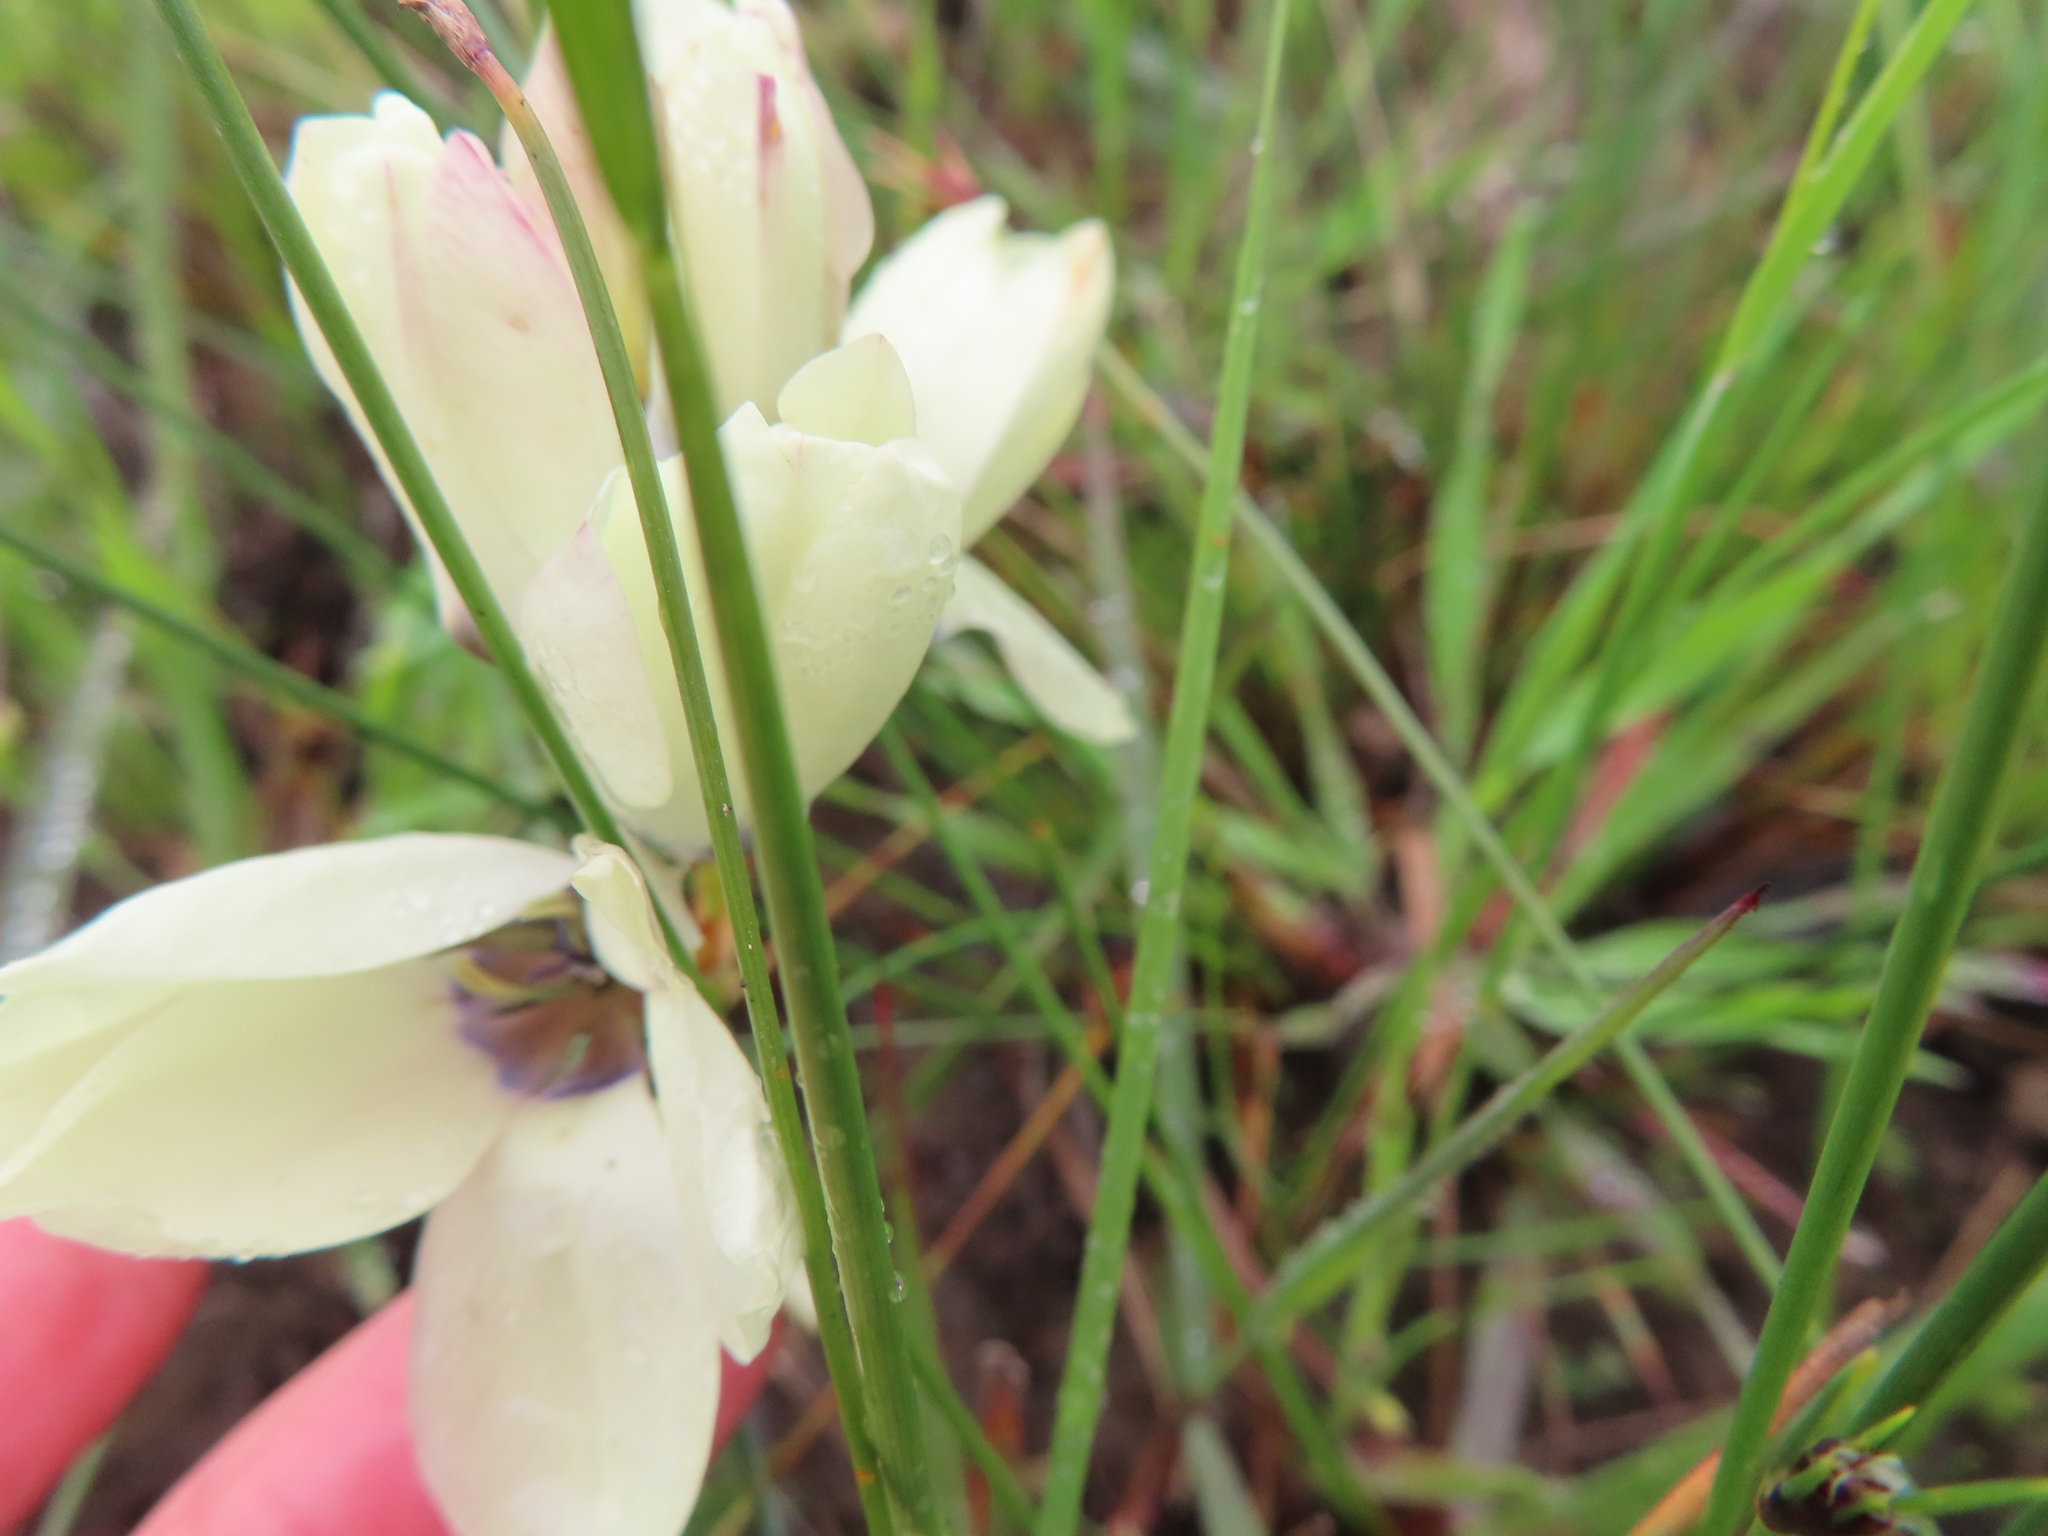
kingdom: Plantae
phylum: Tracheophyta
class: Liliopsida
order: Asparagales
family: Iridaceae
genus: Ixia
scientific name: Ixia abbreviata
